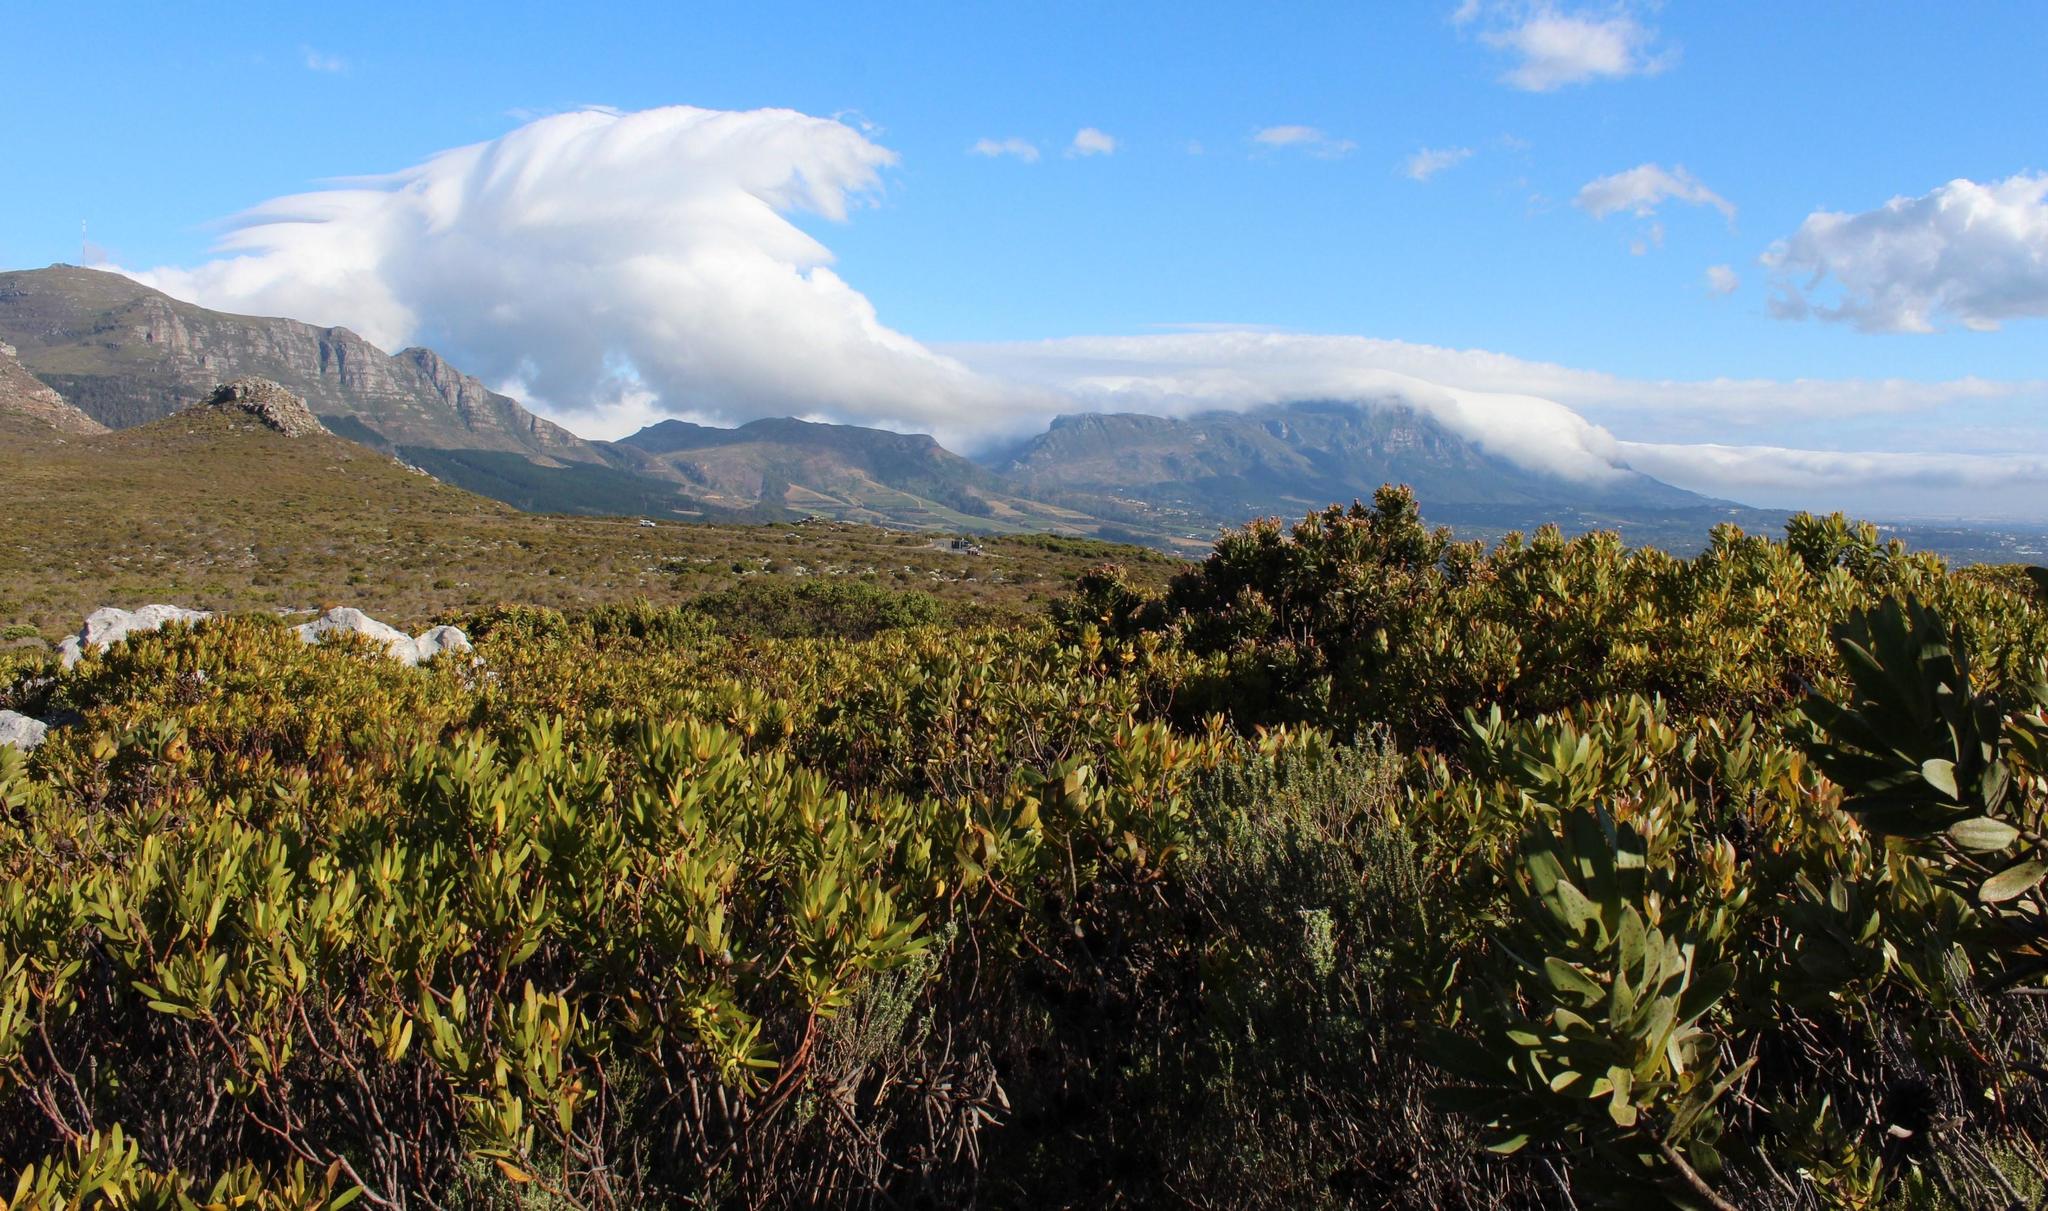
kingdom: Plantae
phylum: Tracheophyta
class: Magnoliopsida
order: Proteales
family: Proteaceae
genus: Leucadendron
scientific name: Leucadendron laureolum
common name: Golden sunshinebush
